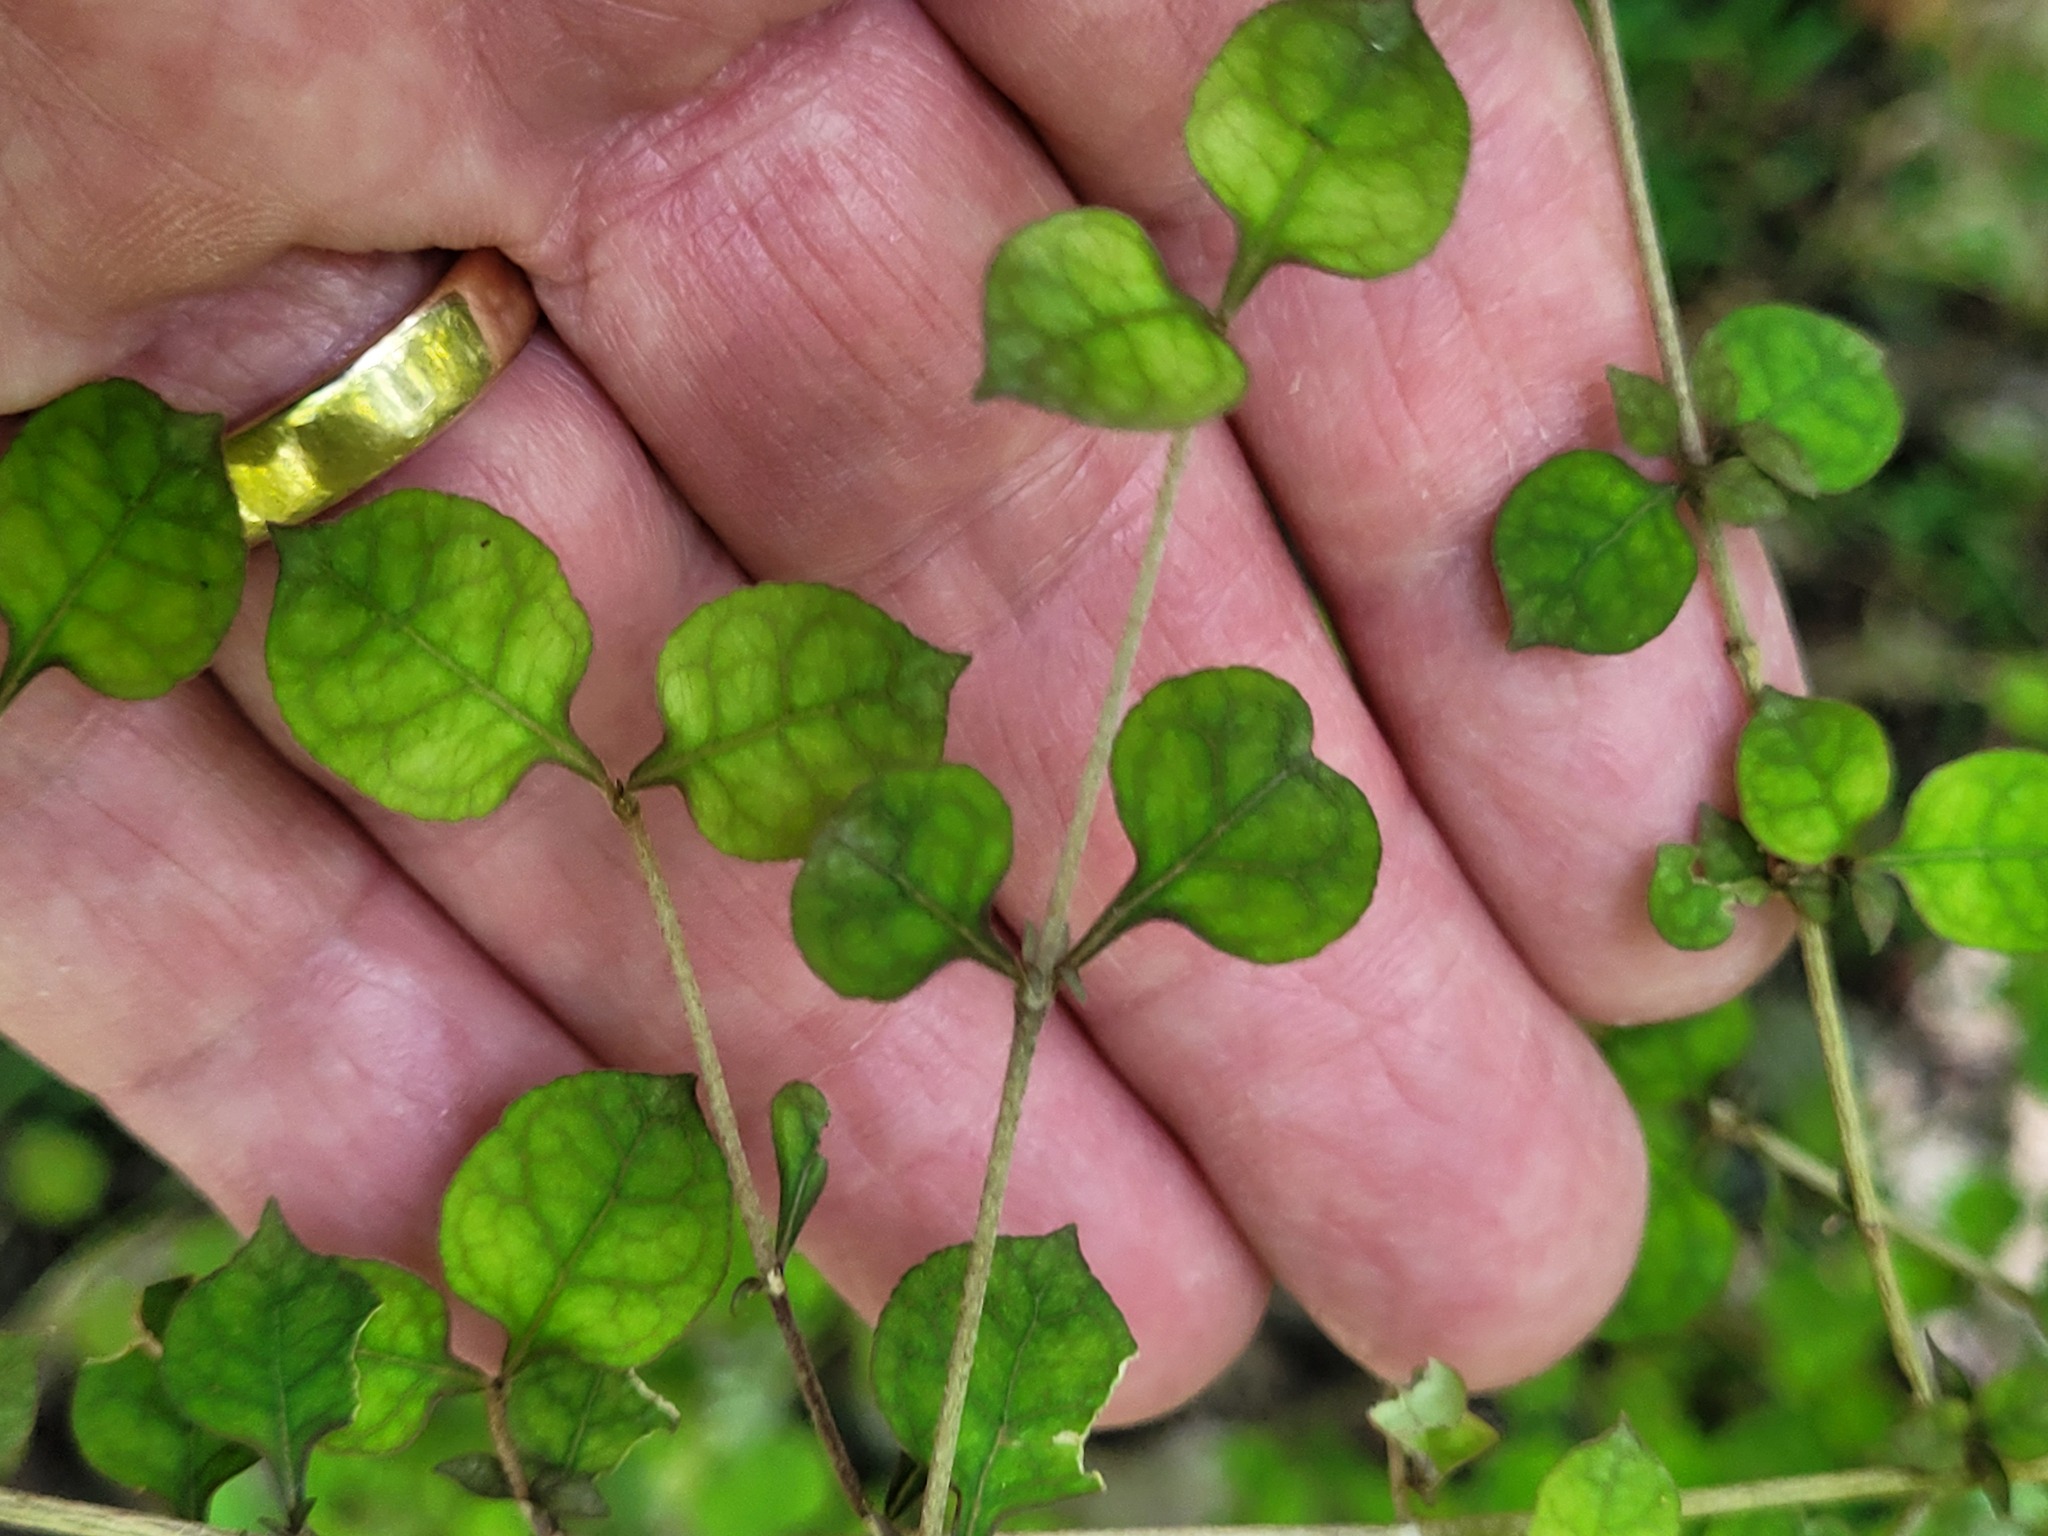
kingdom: Plantae
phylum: Tracheophyta
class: Magnoliopsida
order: Gentianales
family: Rubiaceae
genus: Coprosma
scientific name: Coprosma areolata
